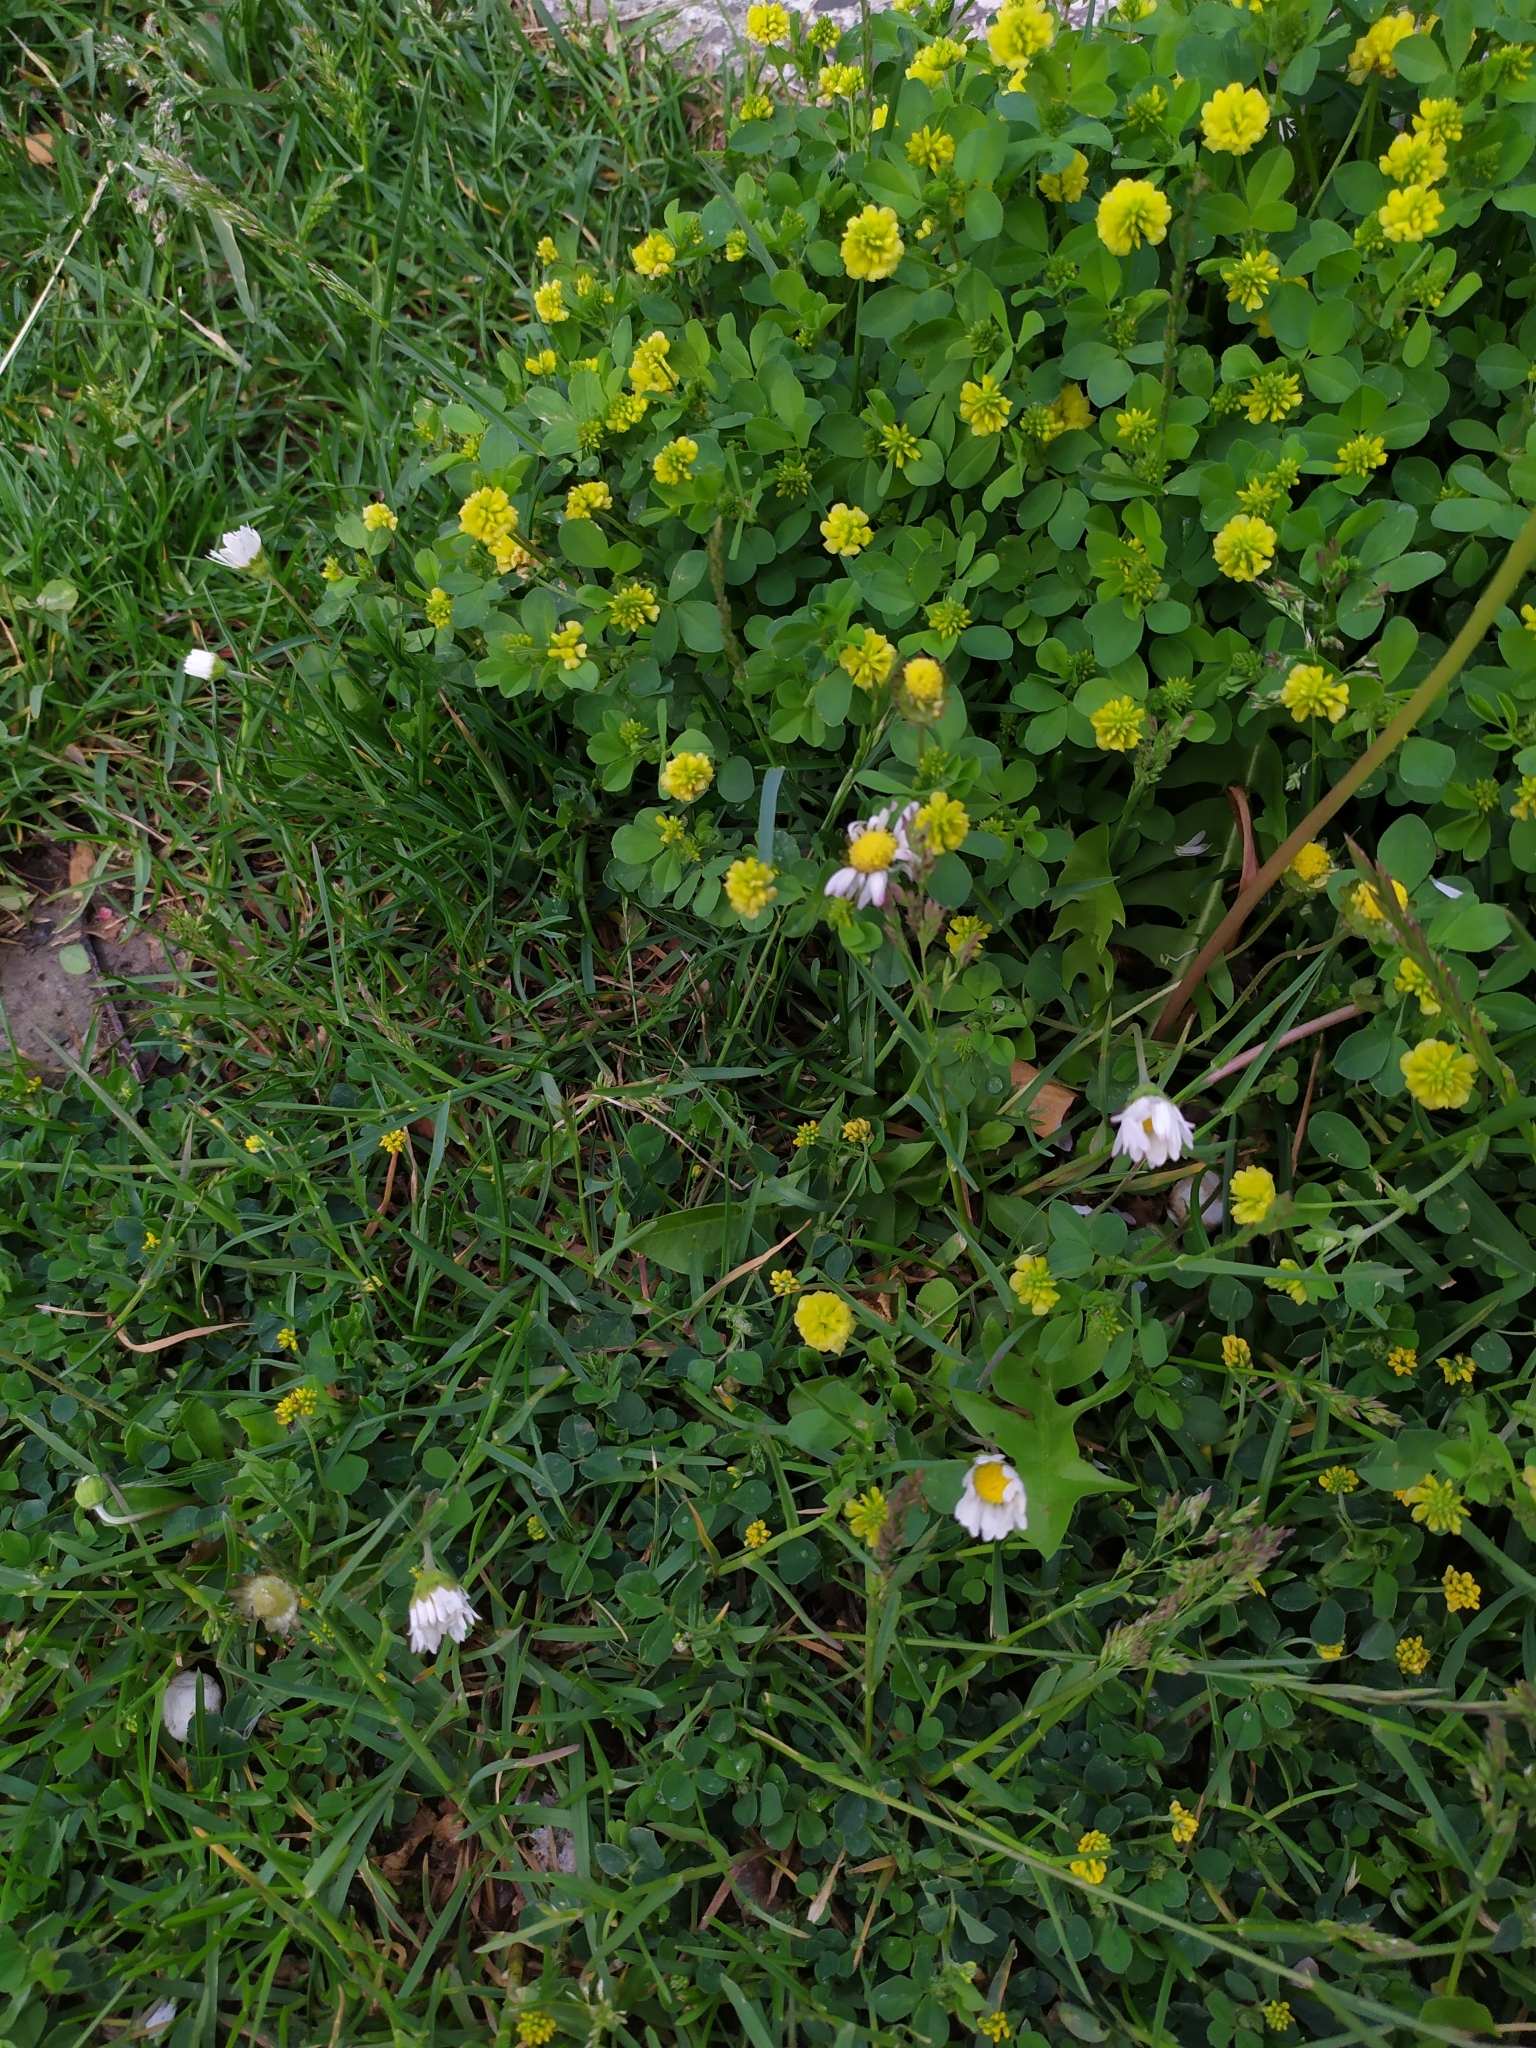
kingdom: Plantae
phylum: Tracheophyta
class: Magnoliopsida
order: Fabales
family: Fabaceae
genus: Trifolium
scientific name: Trifolium campestre
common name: Field clover
